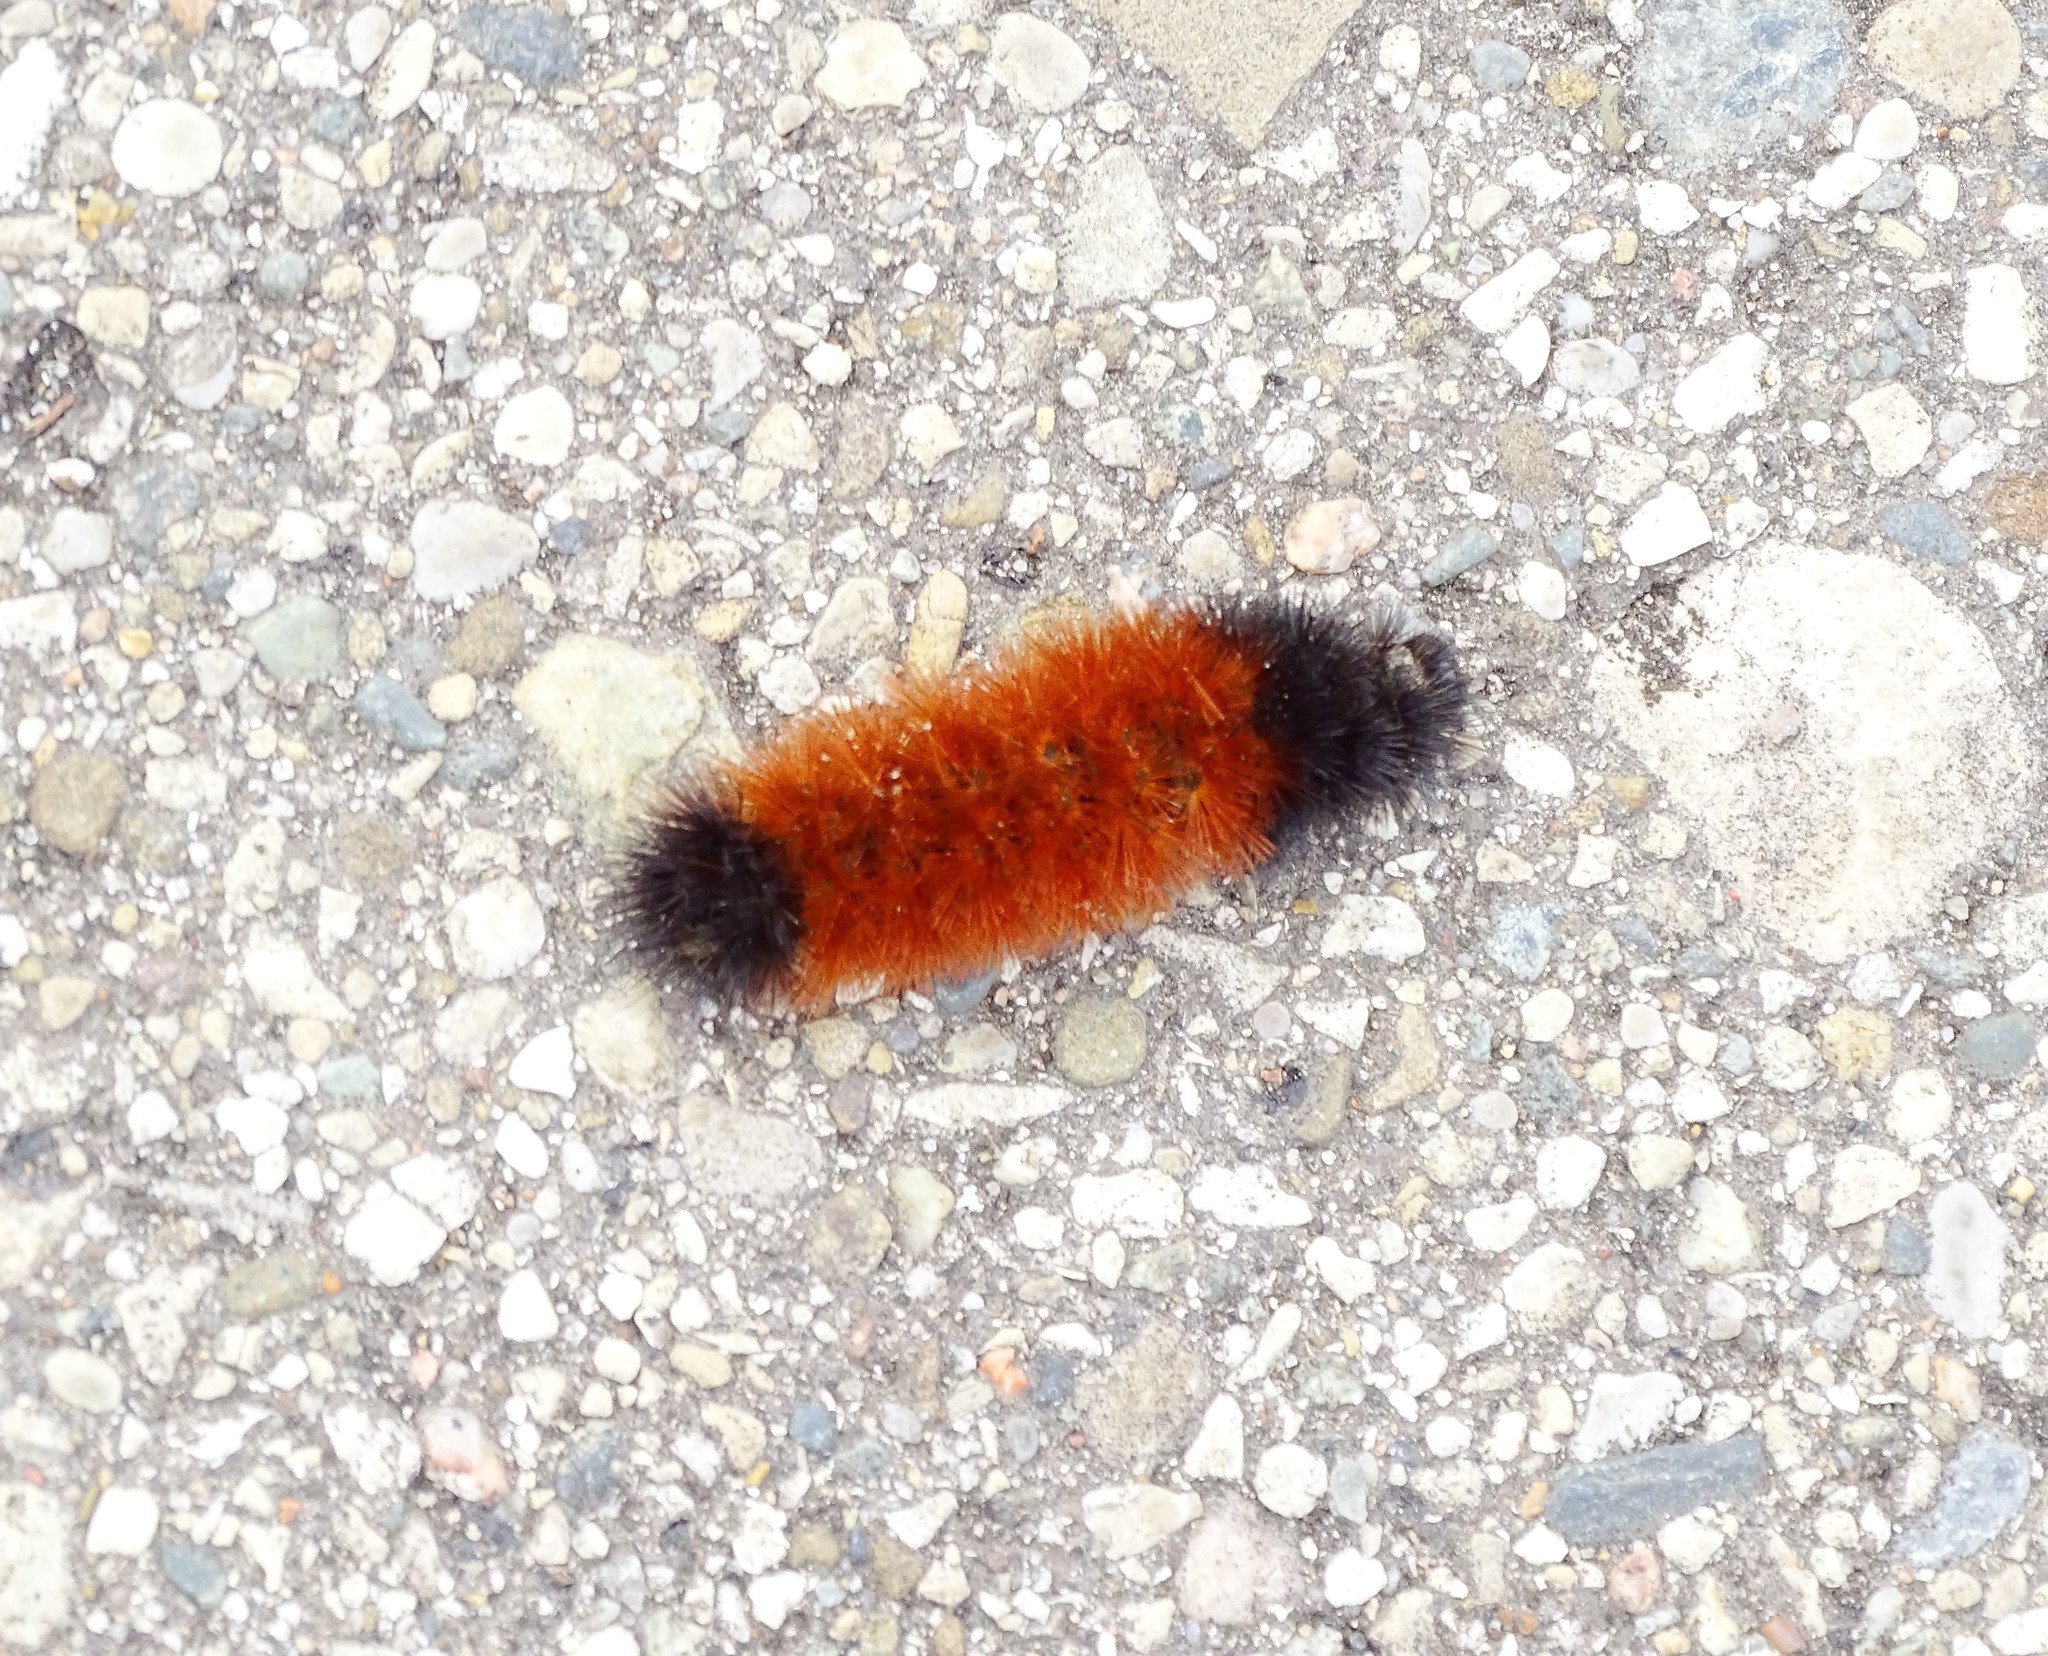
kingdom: Animalia
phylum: Arthropoda
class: Insecta
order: Lepidoptera
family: Erebidae
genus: Pyrrharctia
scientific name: Pyrrharctia isabella
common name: Isabella tiger moth
